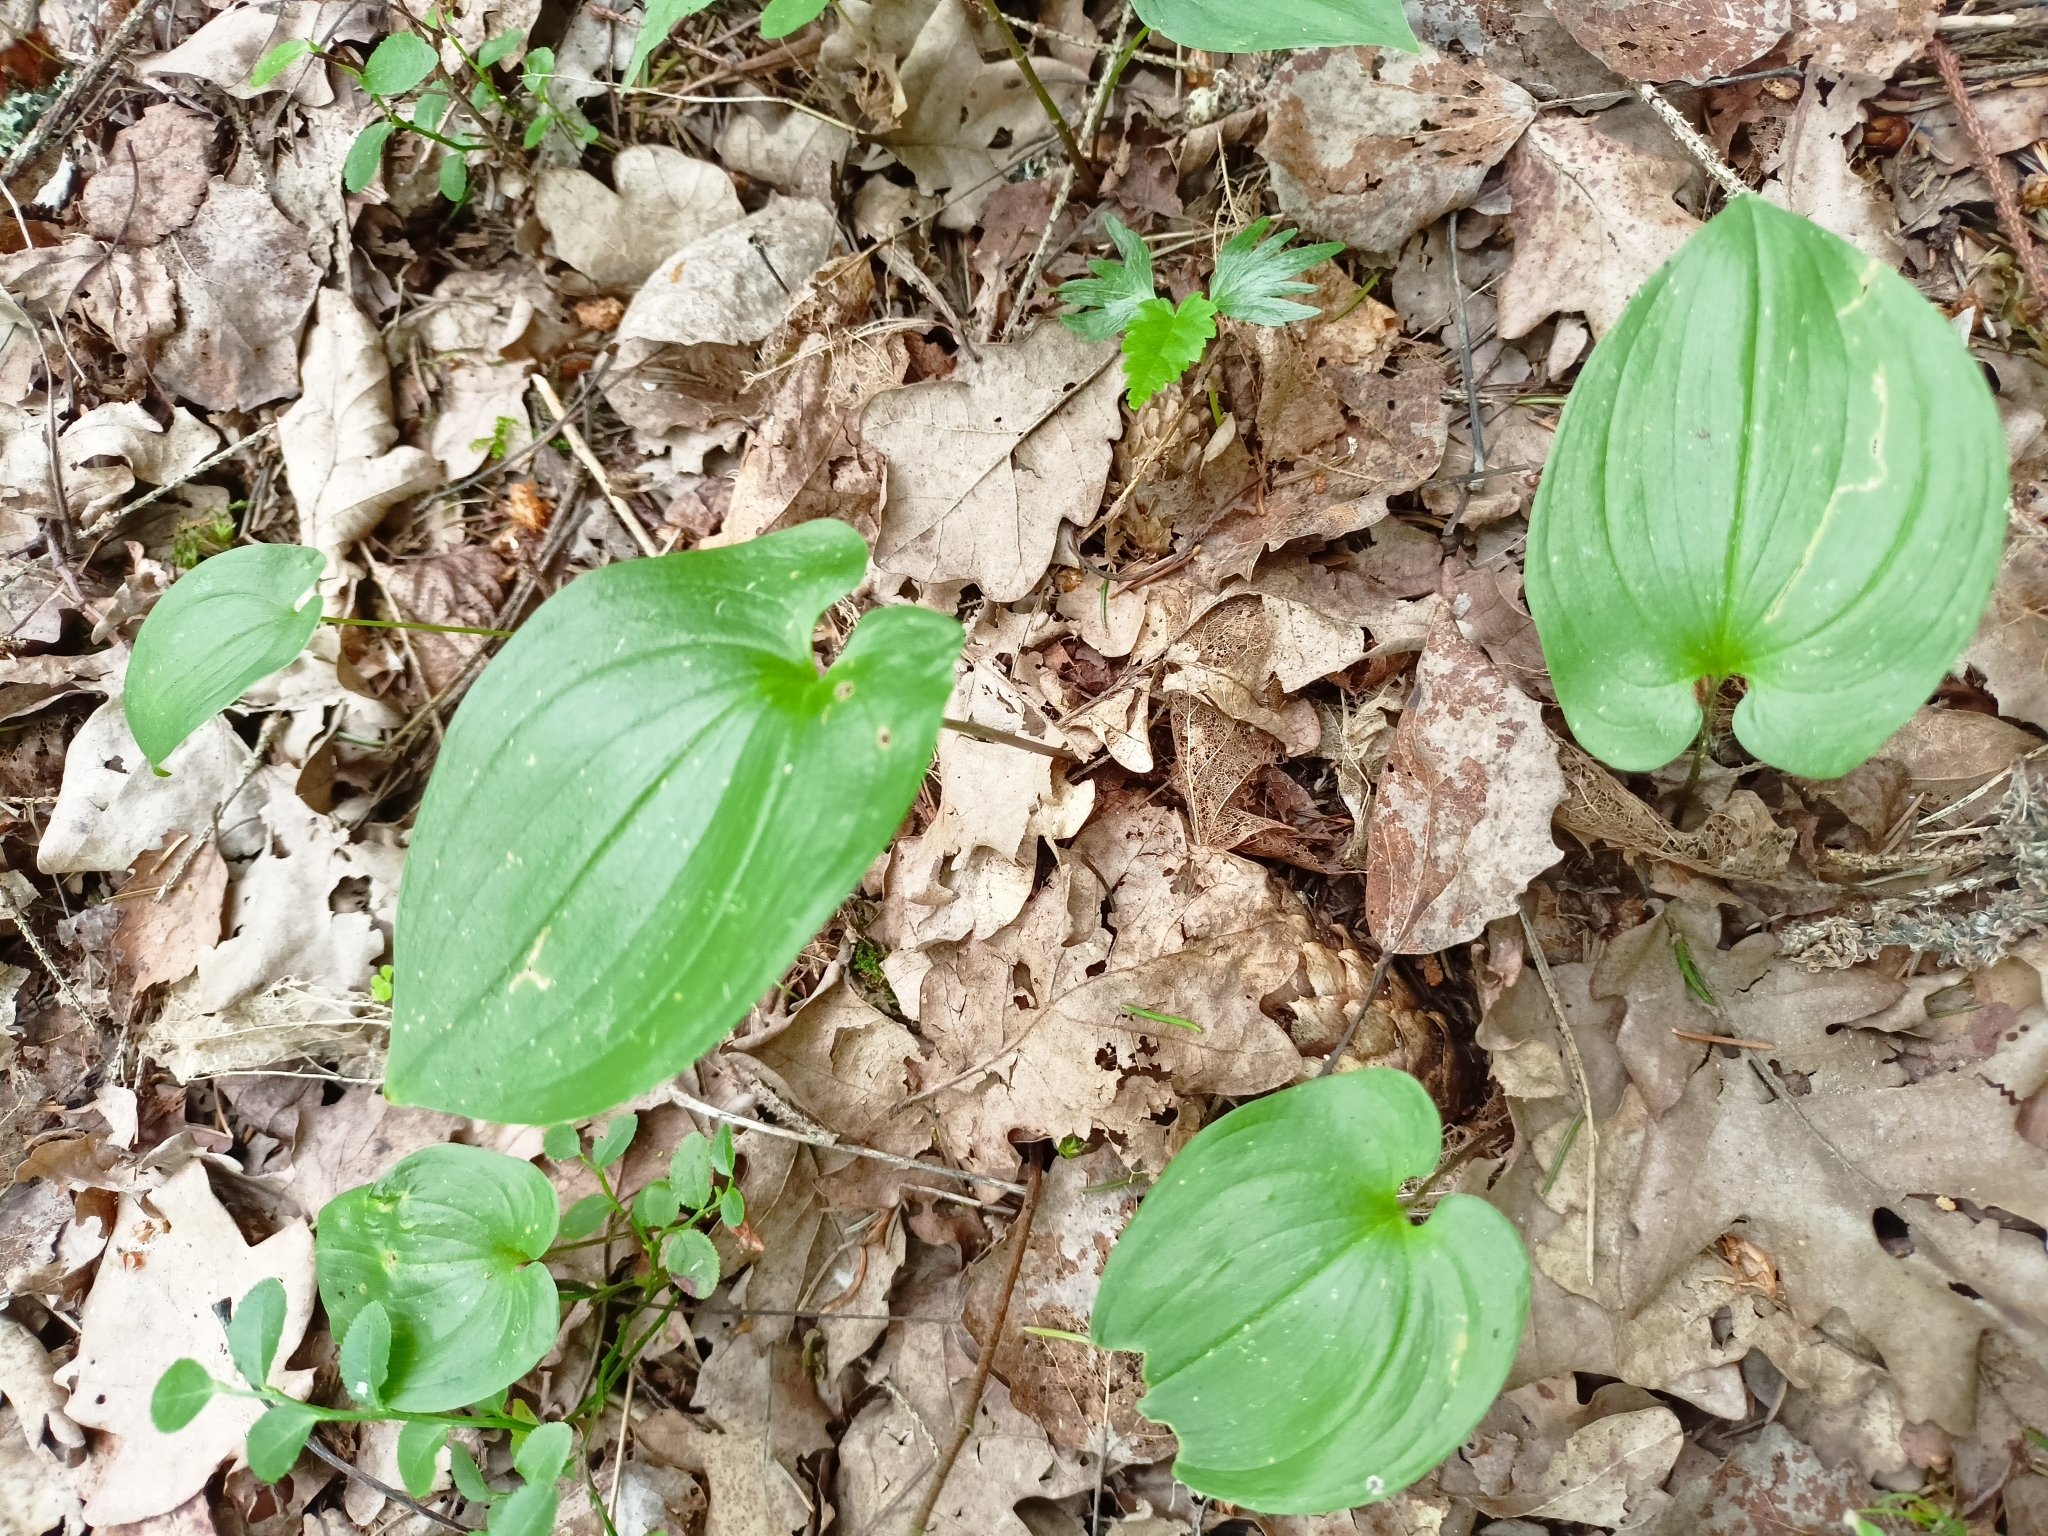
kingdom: Plantae
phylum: Tracheophyta
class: Liliopsida
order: Asparagales
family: Asparagaceae
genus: Maianthemum
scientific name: Maianthemum bifolium
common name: May lily
